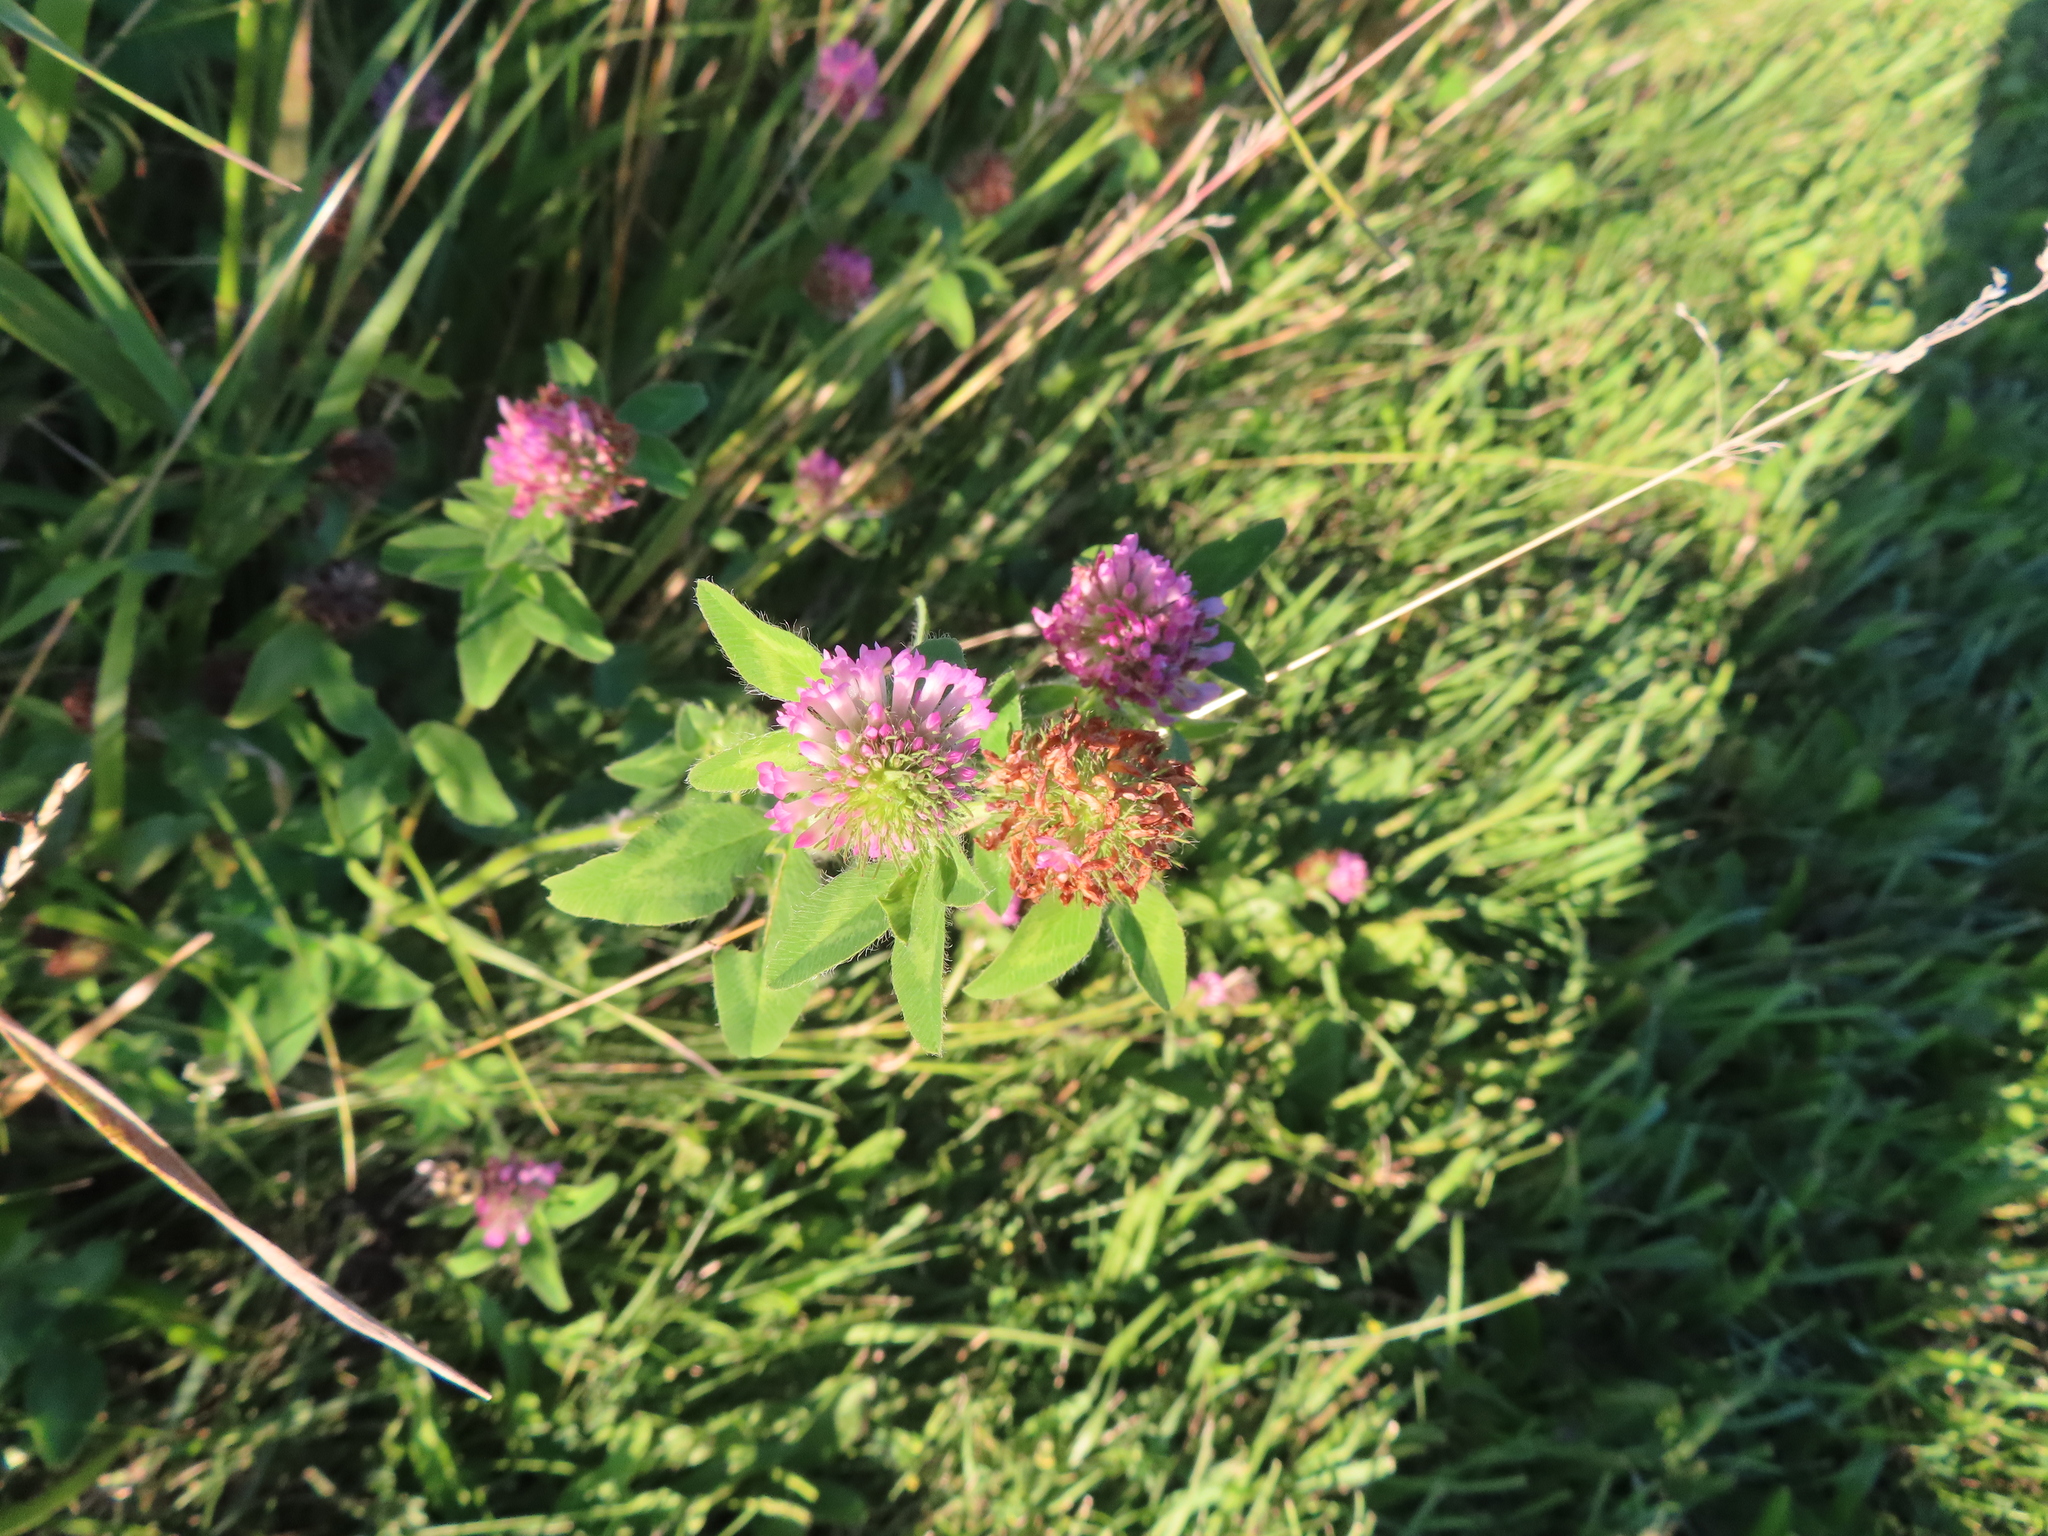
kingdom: Plantae
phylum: Tracheophyta
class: Magnoliopsida
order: Fabales
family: Fabaceae
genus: Trifolium
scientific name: Trifolium pratense
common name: Red clover
